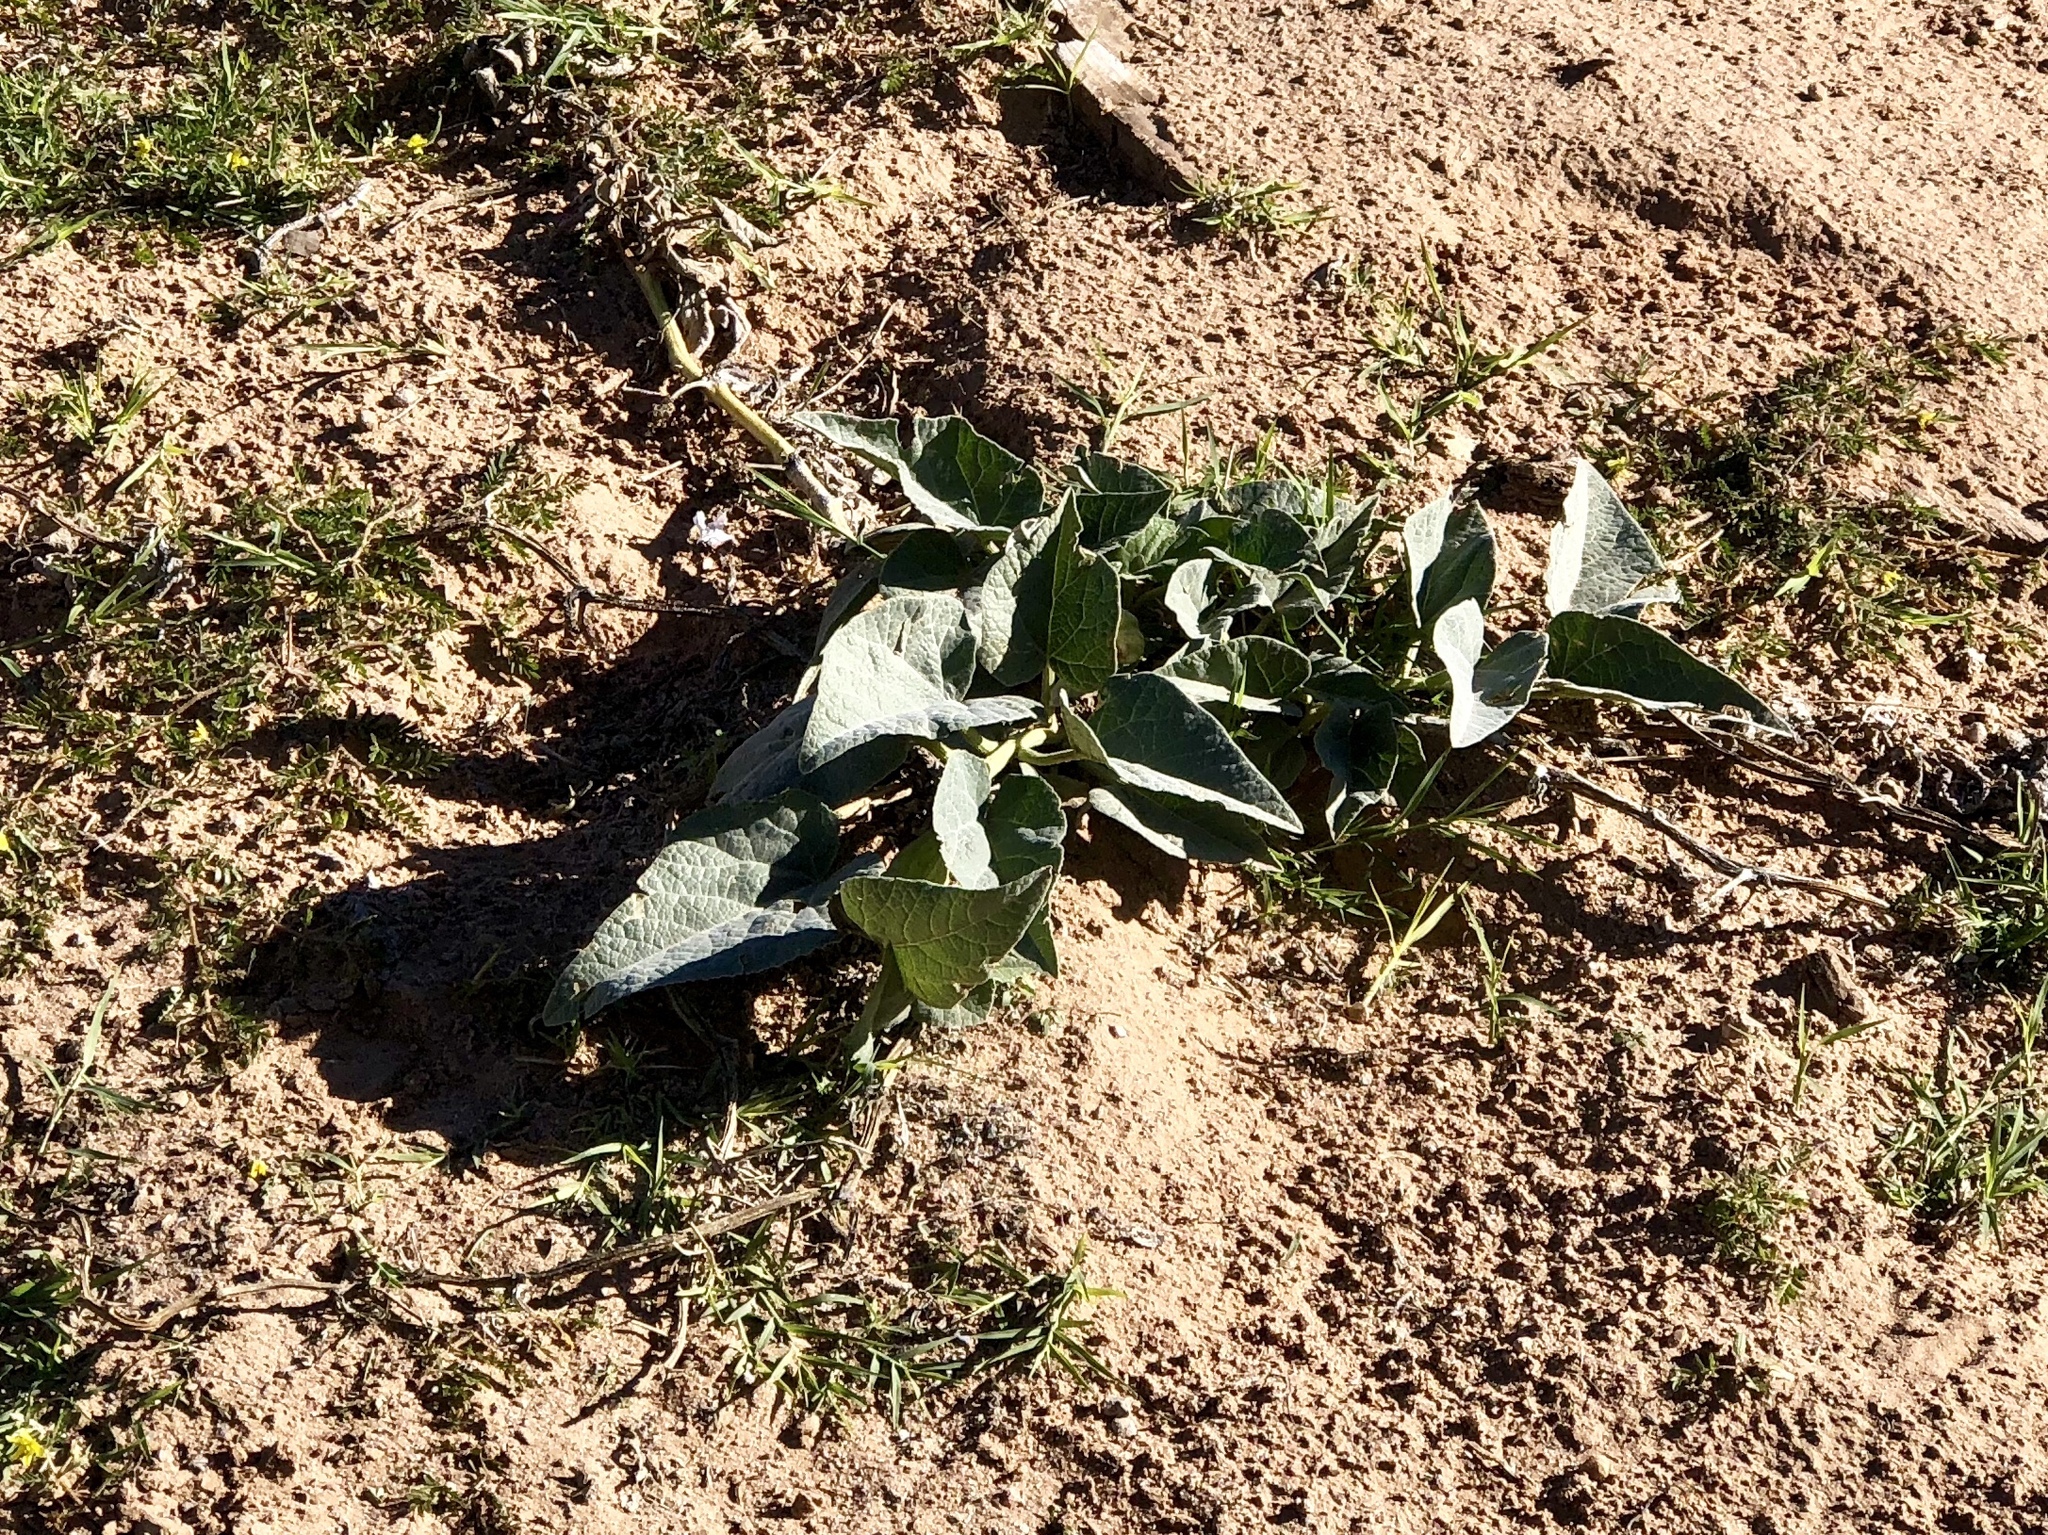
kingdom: Plantae
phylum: Tracheophyta
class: Magnoliopsida
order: Cucurbitales
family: Cucurbitaceae
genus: Cucurbita
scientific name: Cucurbita foetidissima
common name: Buffalo gourd
